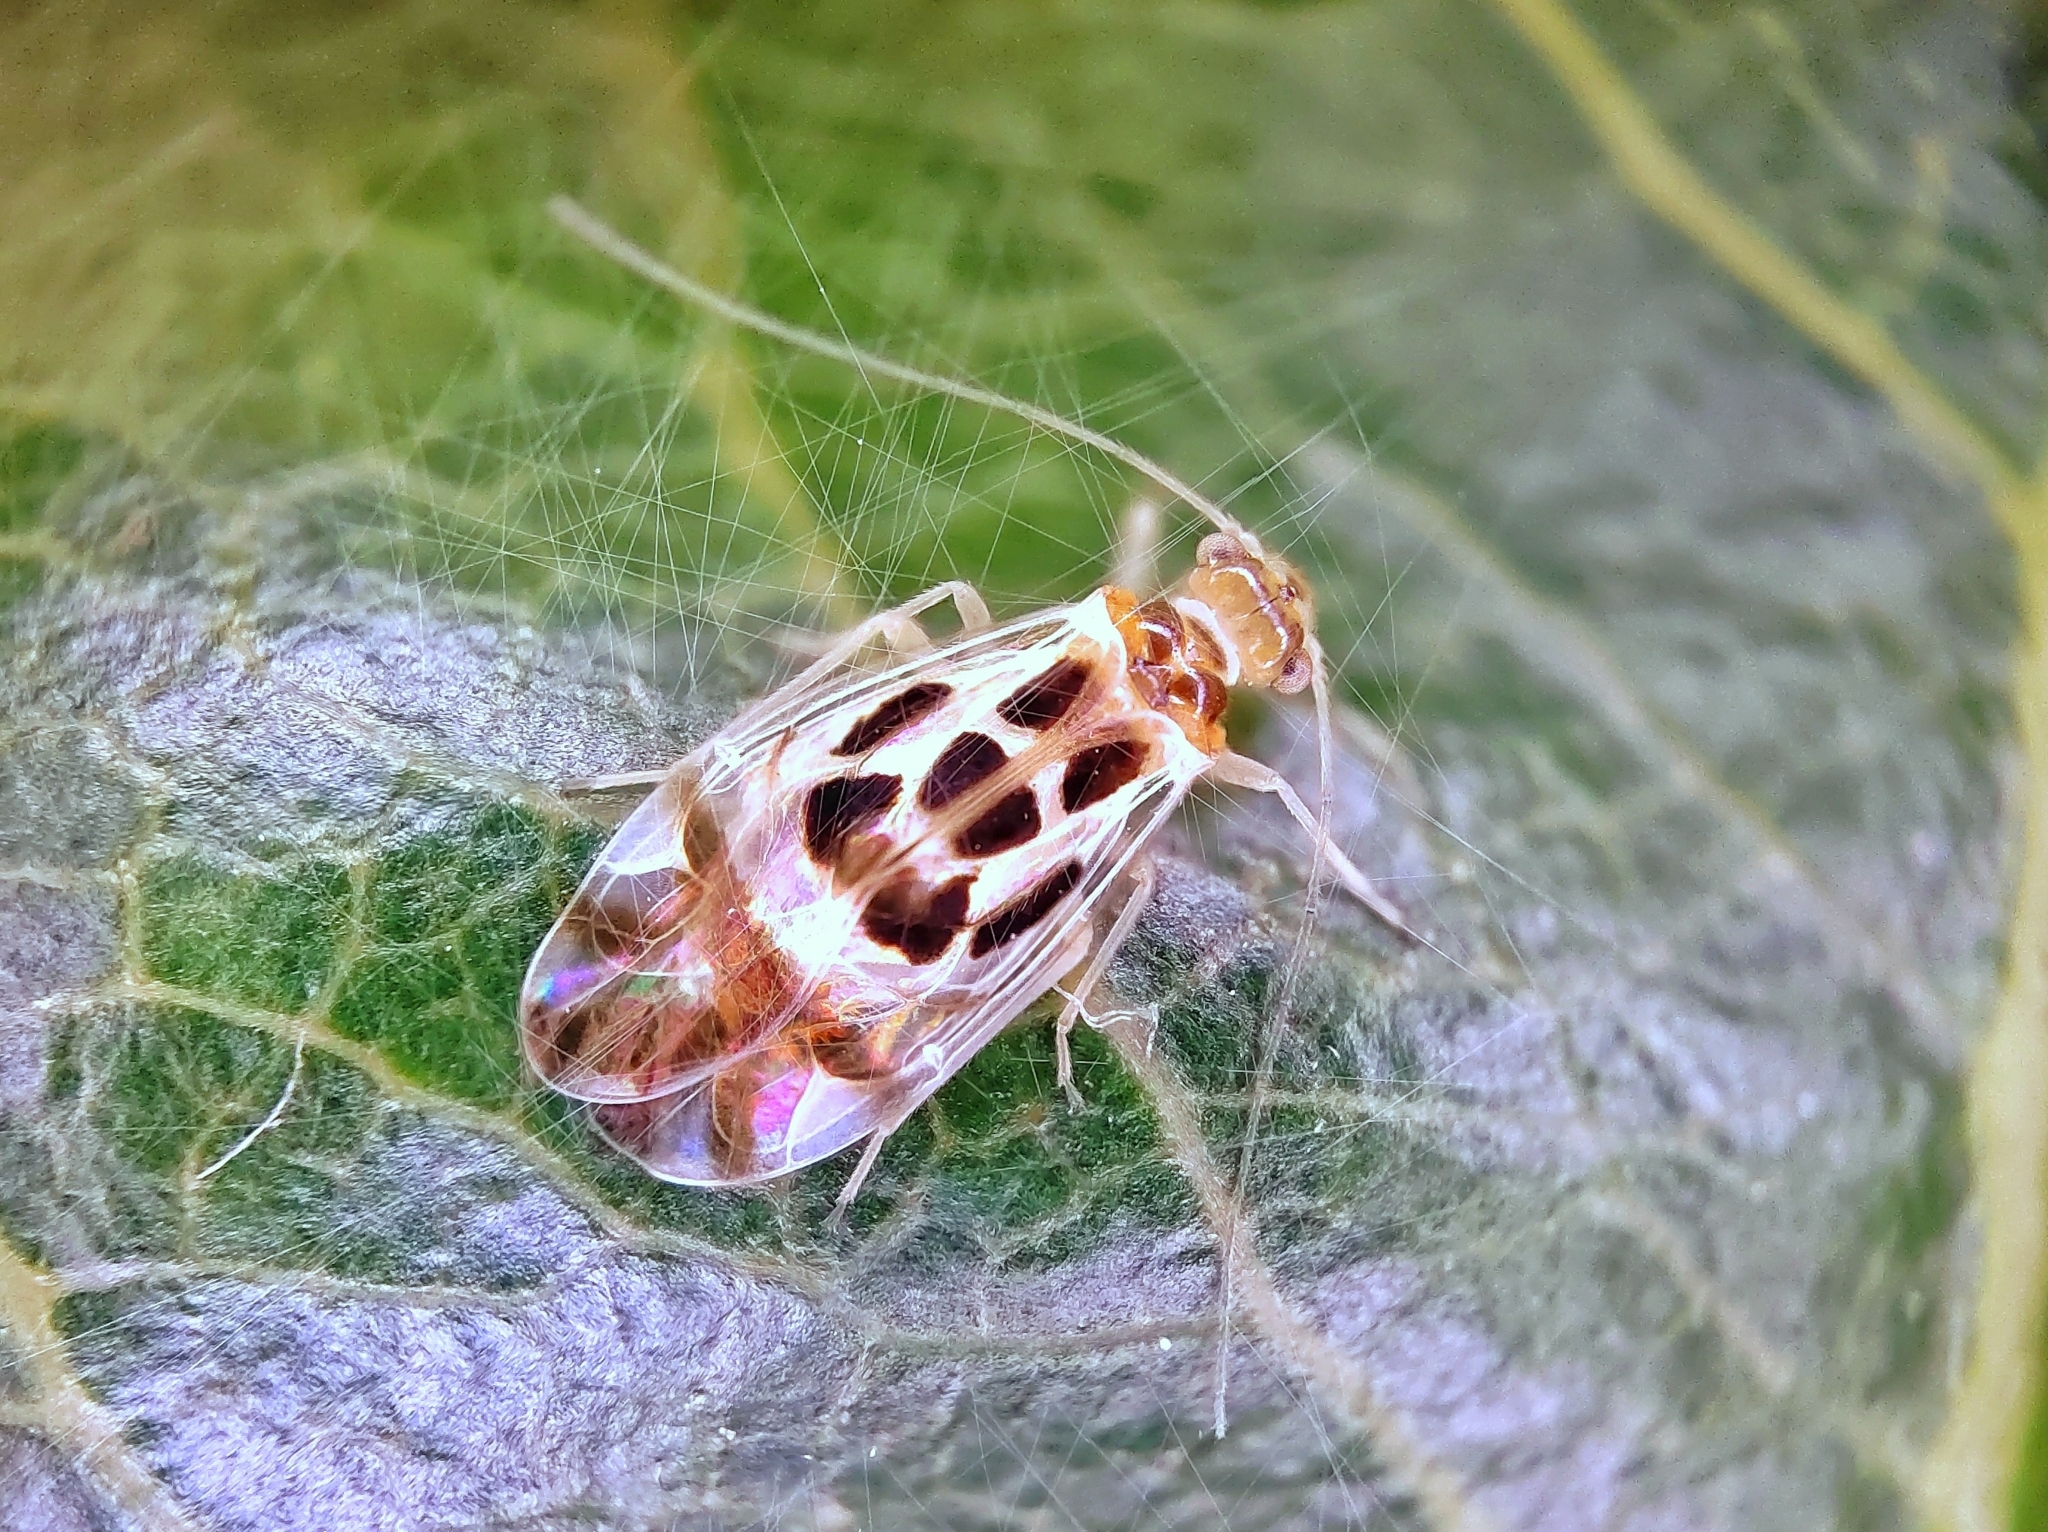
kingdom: Animalia
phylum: Arthropoda
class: Insecta
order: Psocodea
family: Stenopsocidae
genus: Graphopsocus
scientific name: Graphopsocus cruciatus
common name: Lizard bark louse
